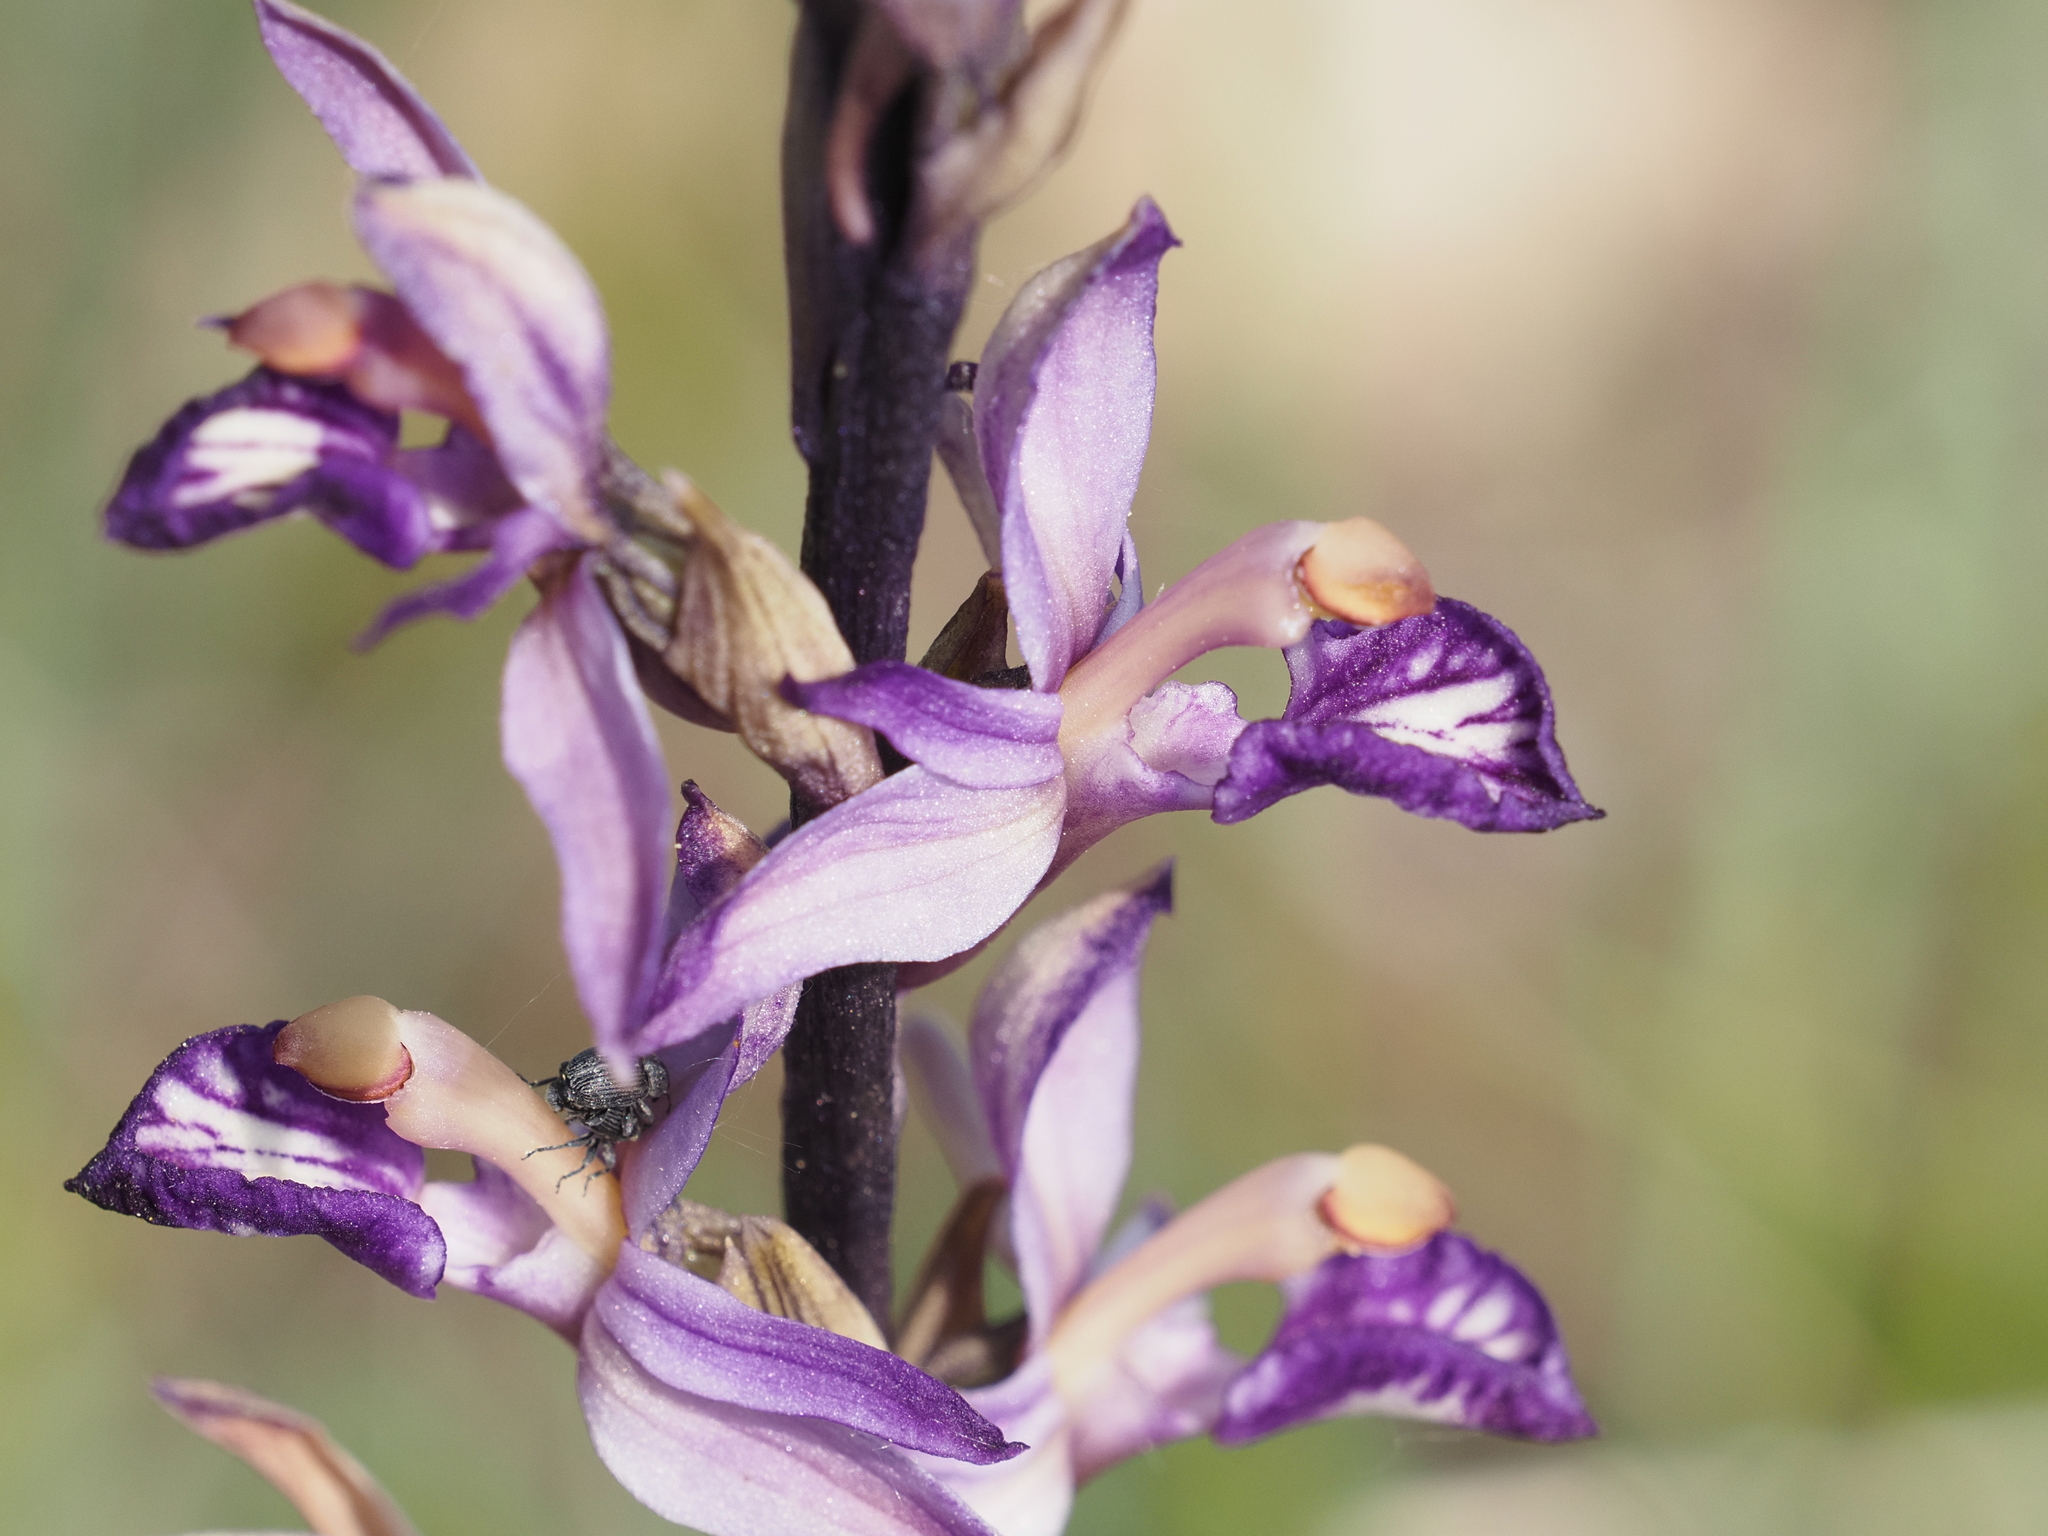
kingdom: Plantae
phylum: Tracheophyta
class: Liliopsida
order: Asparagales
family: Orchidaceae
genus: Limodorum
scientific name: Limodorum abortivum
